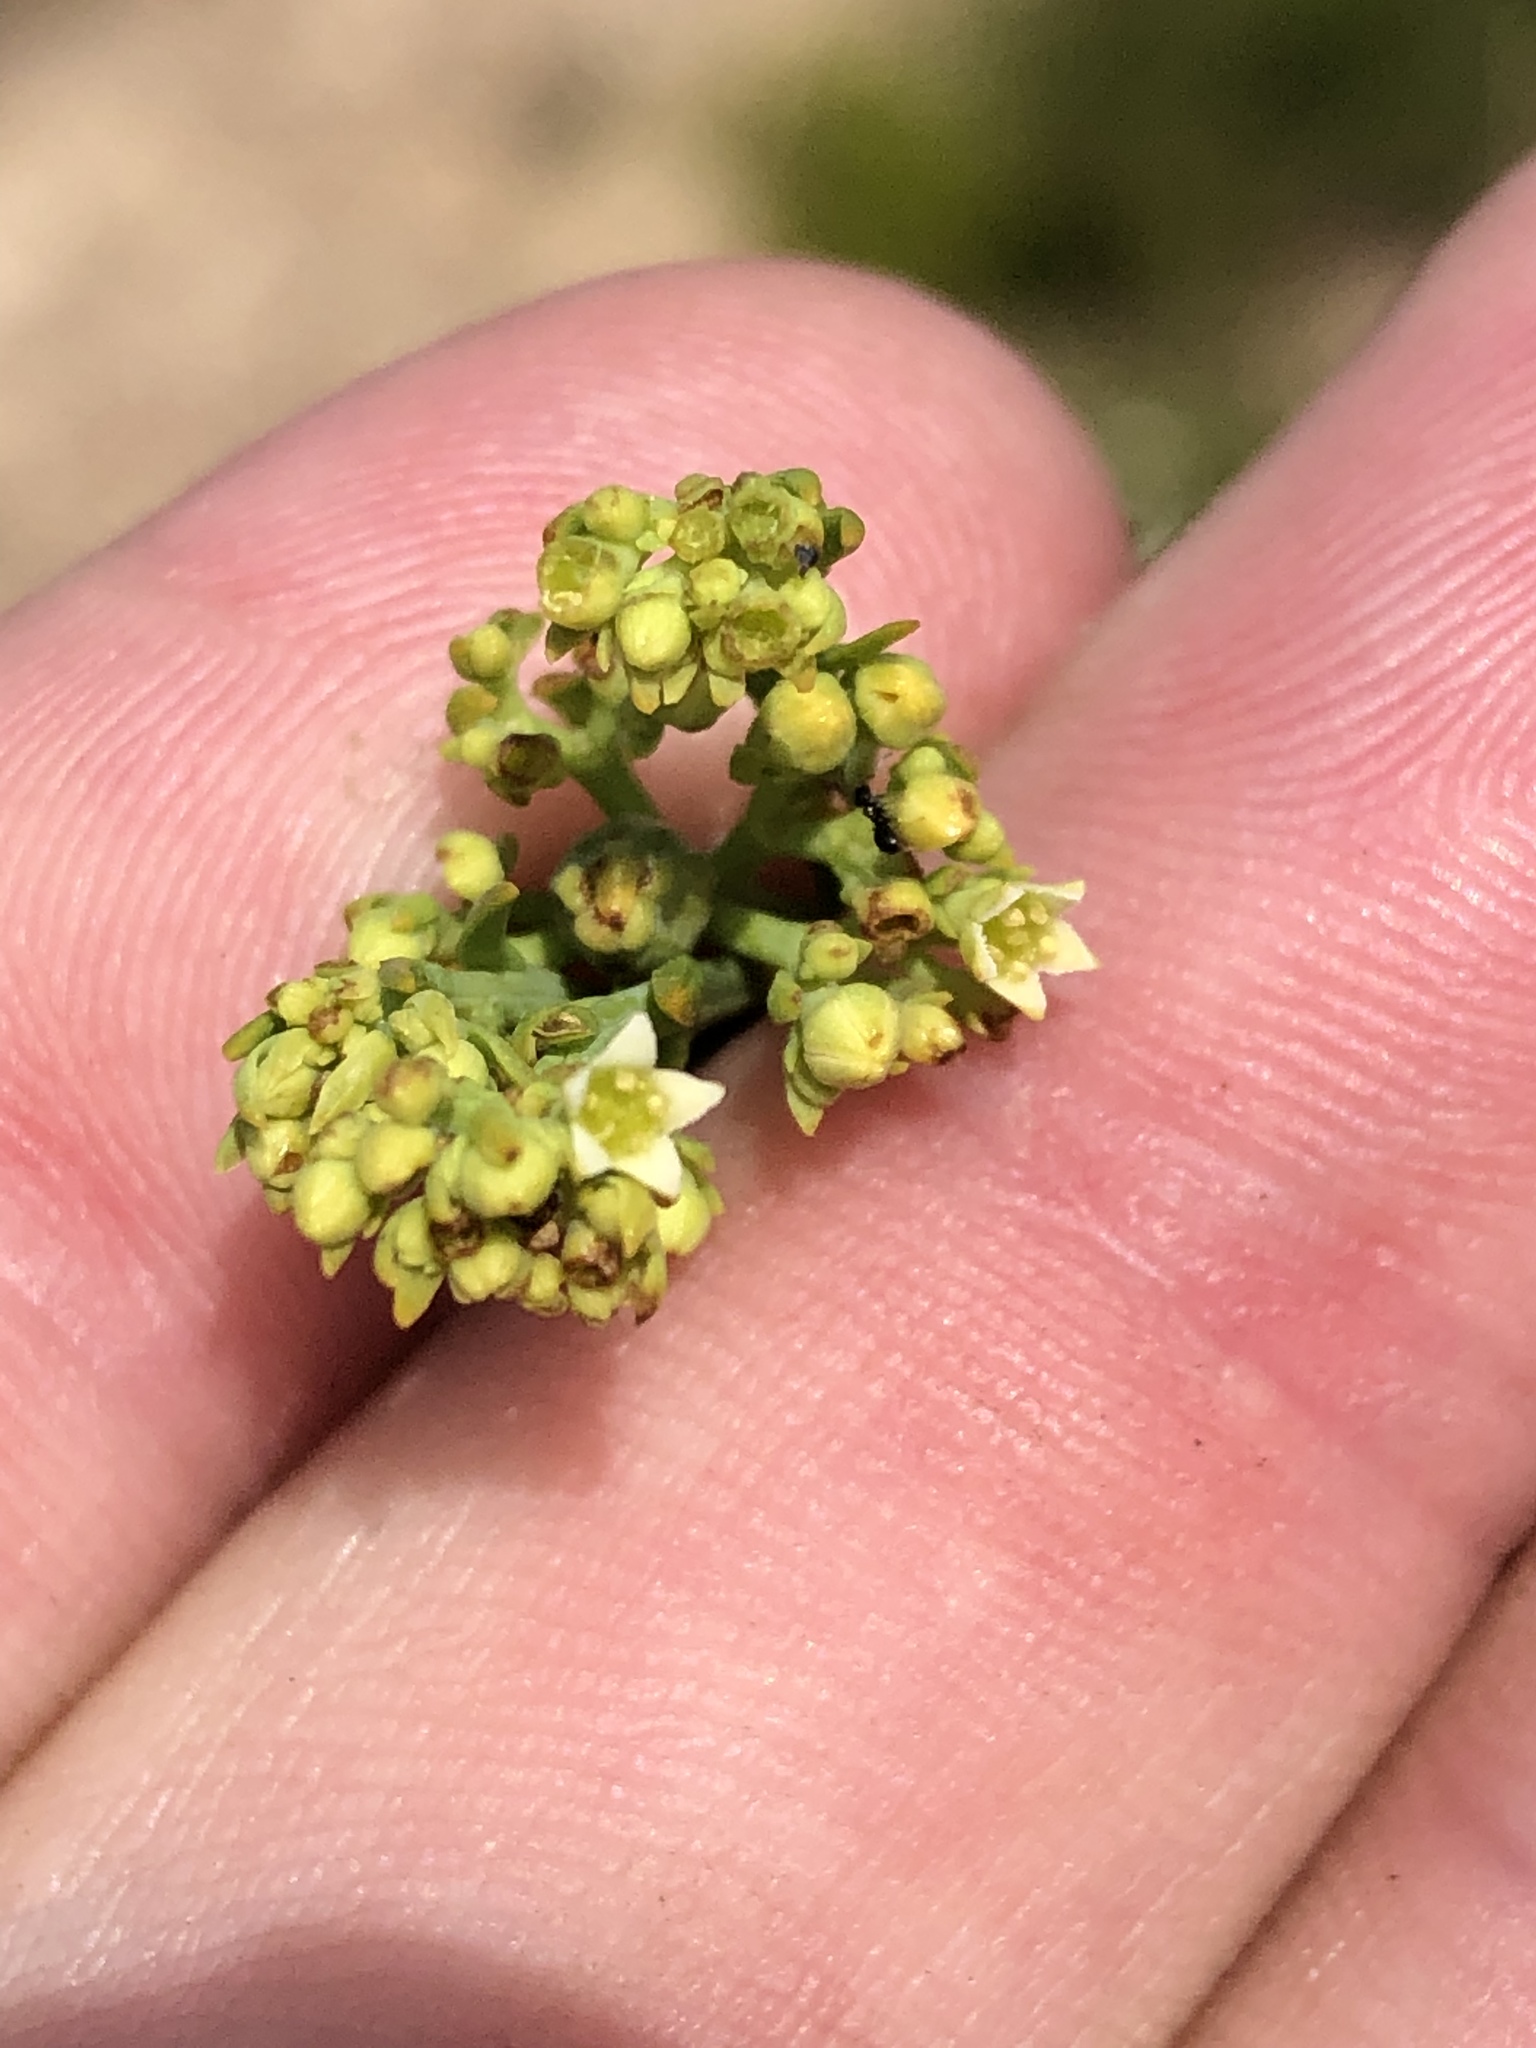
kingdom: Plantae
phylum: Tracheophyta
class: Magnoliopsida
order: Santalales
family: Thesiaceae
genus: Thesium
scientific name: Thesium strictum
